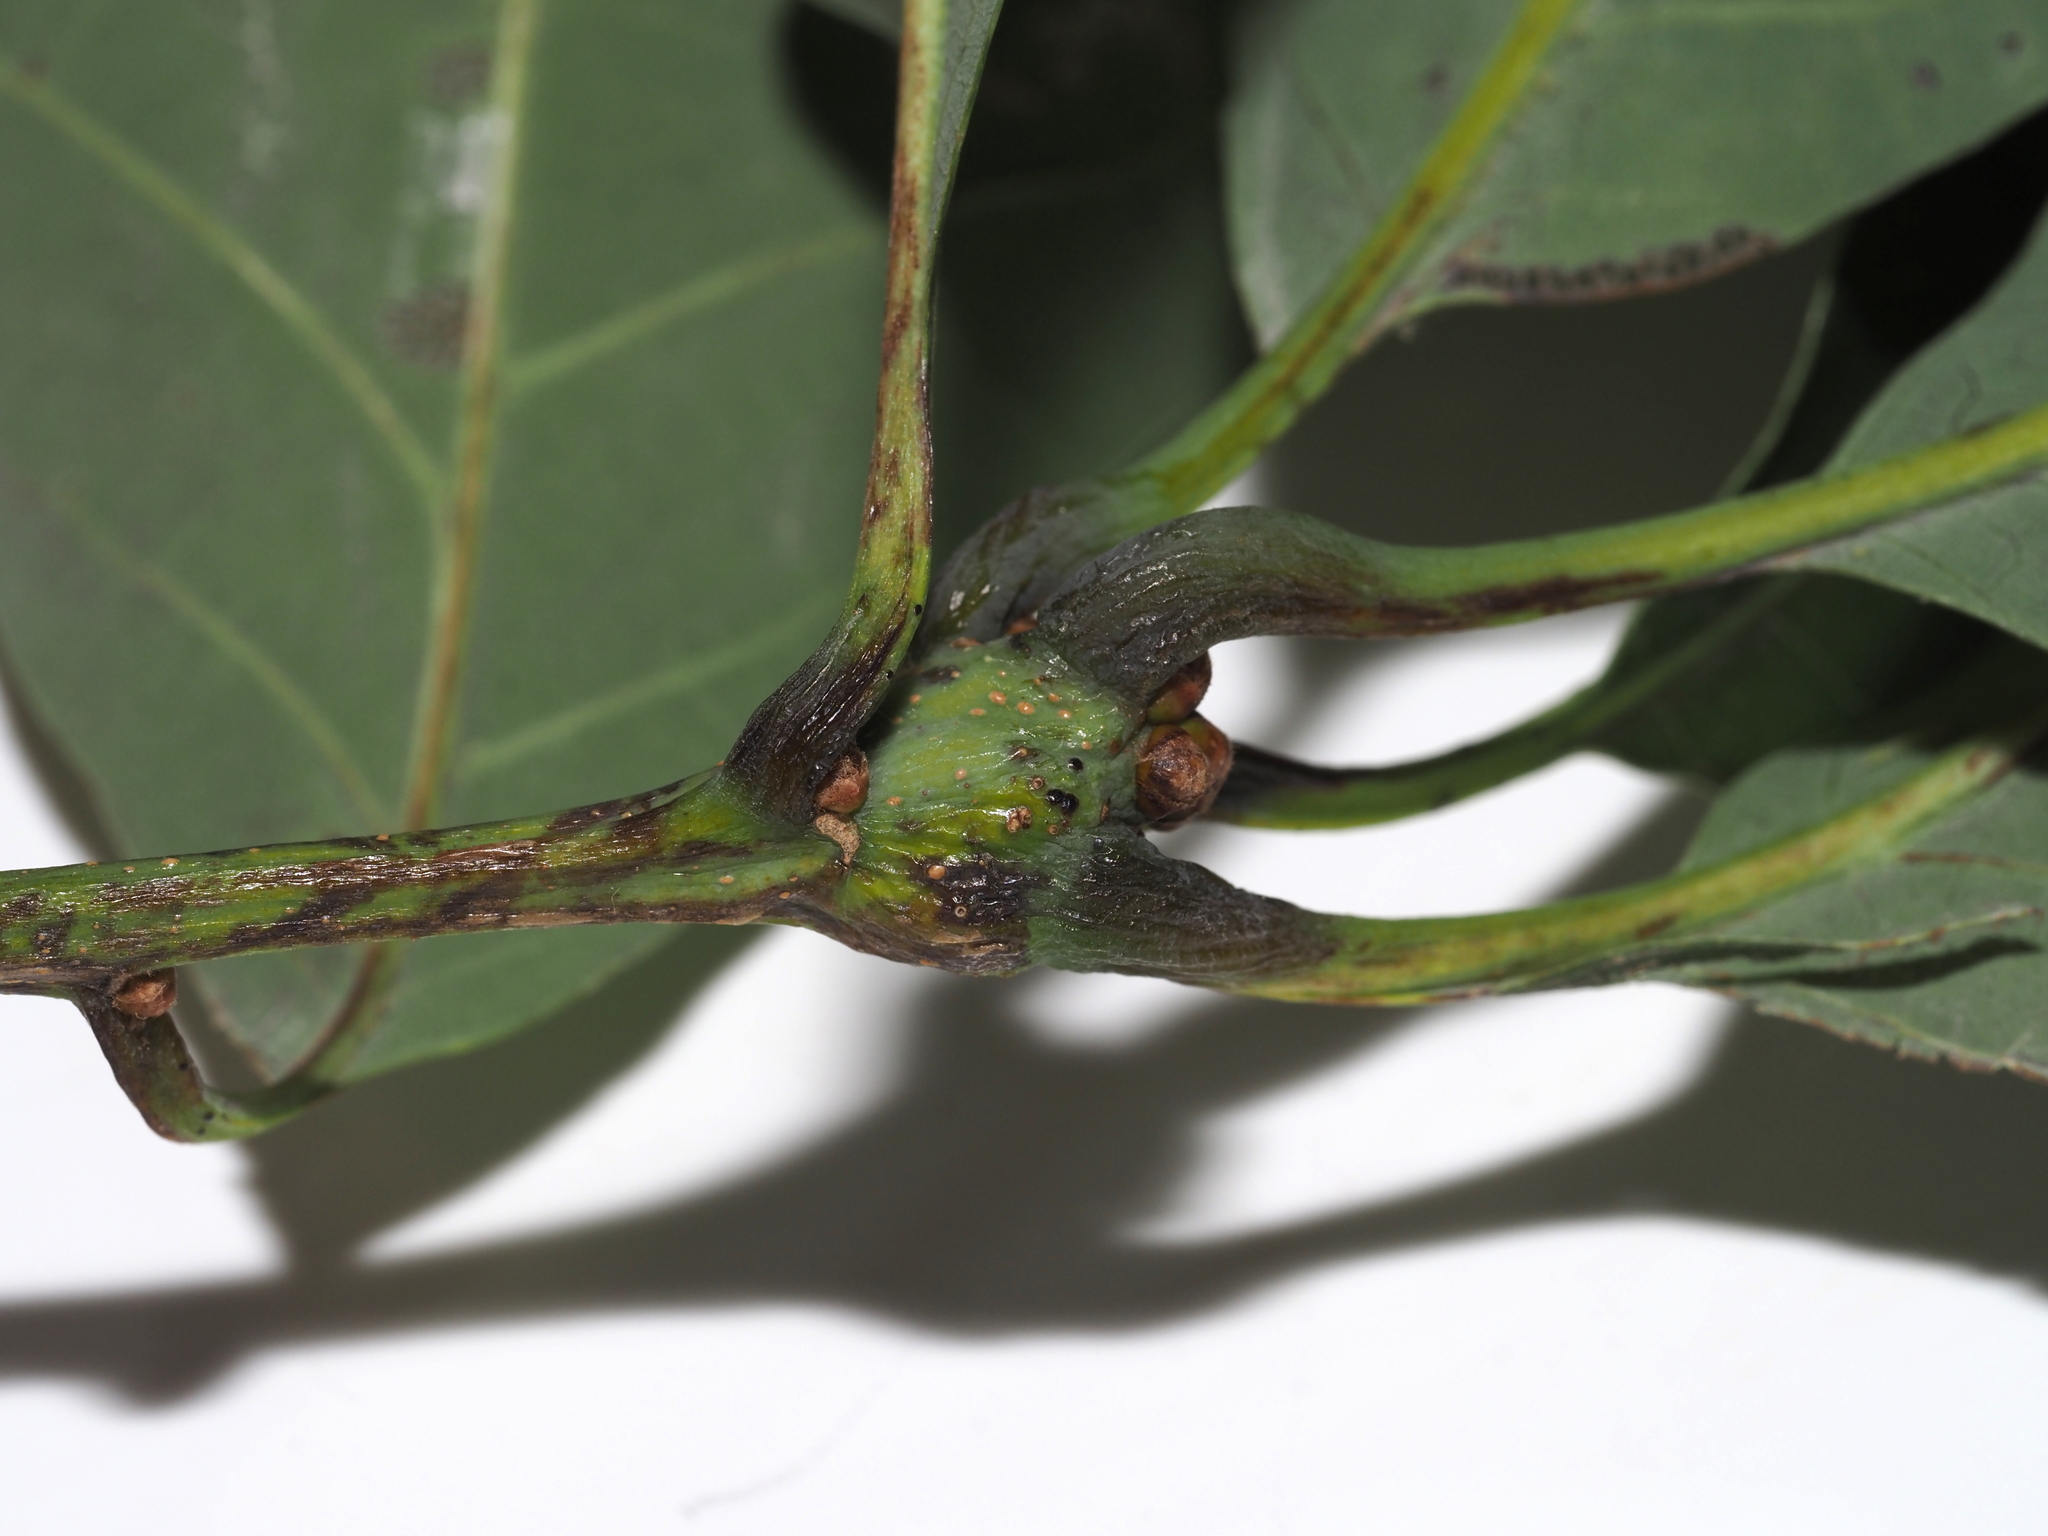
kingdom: Animalia
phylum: Arthropoda
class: Insecta
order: Hymenoptera
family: Cynipidae
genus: Callirhytis
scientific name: Callirhytis clavula
